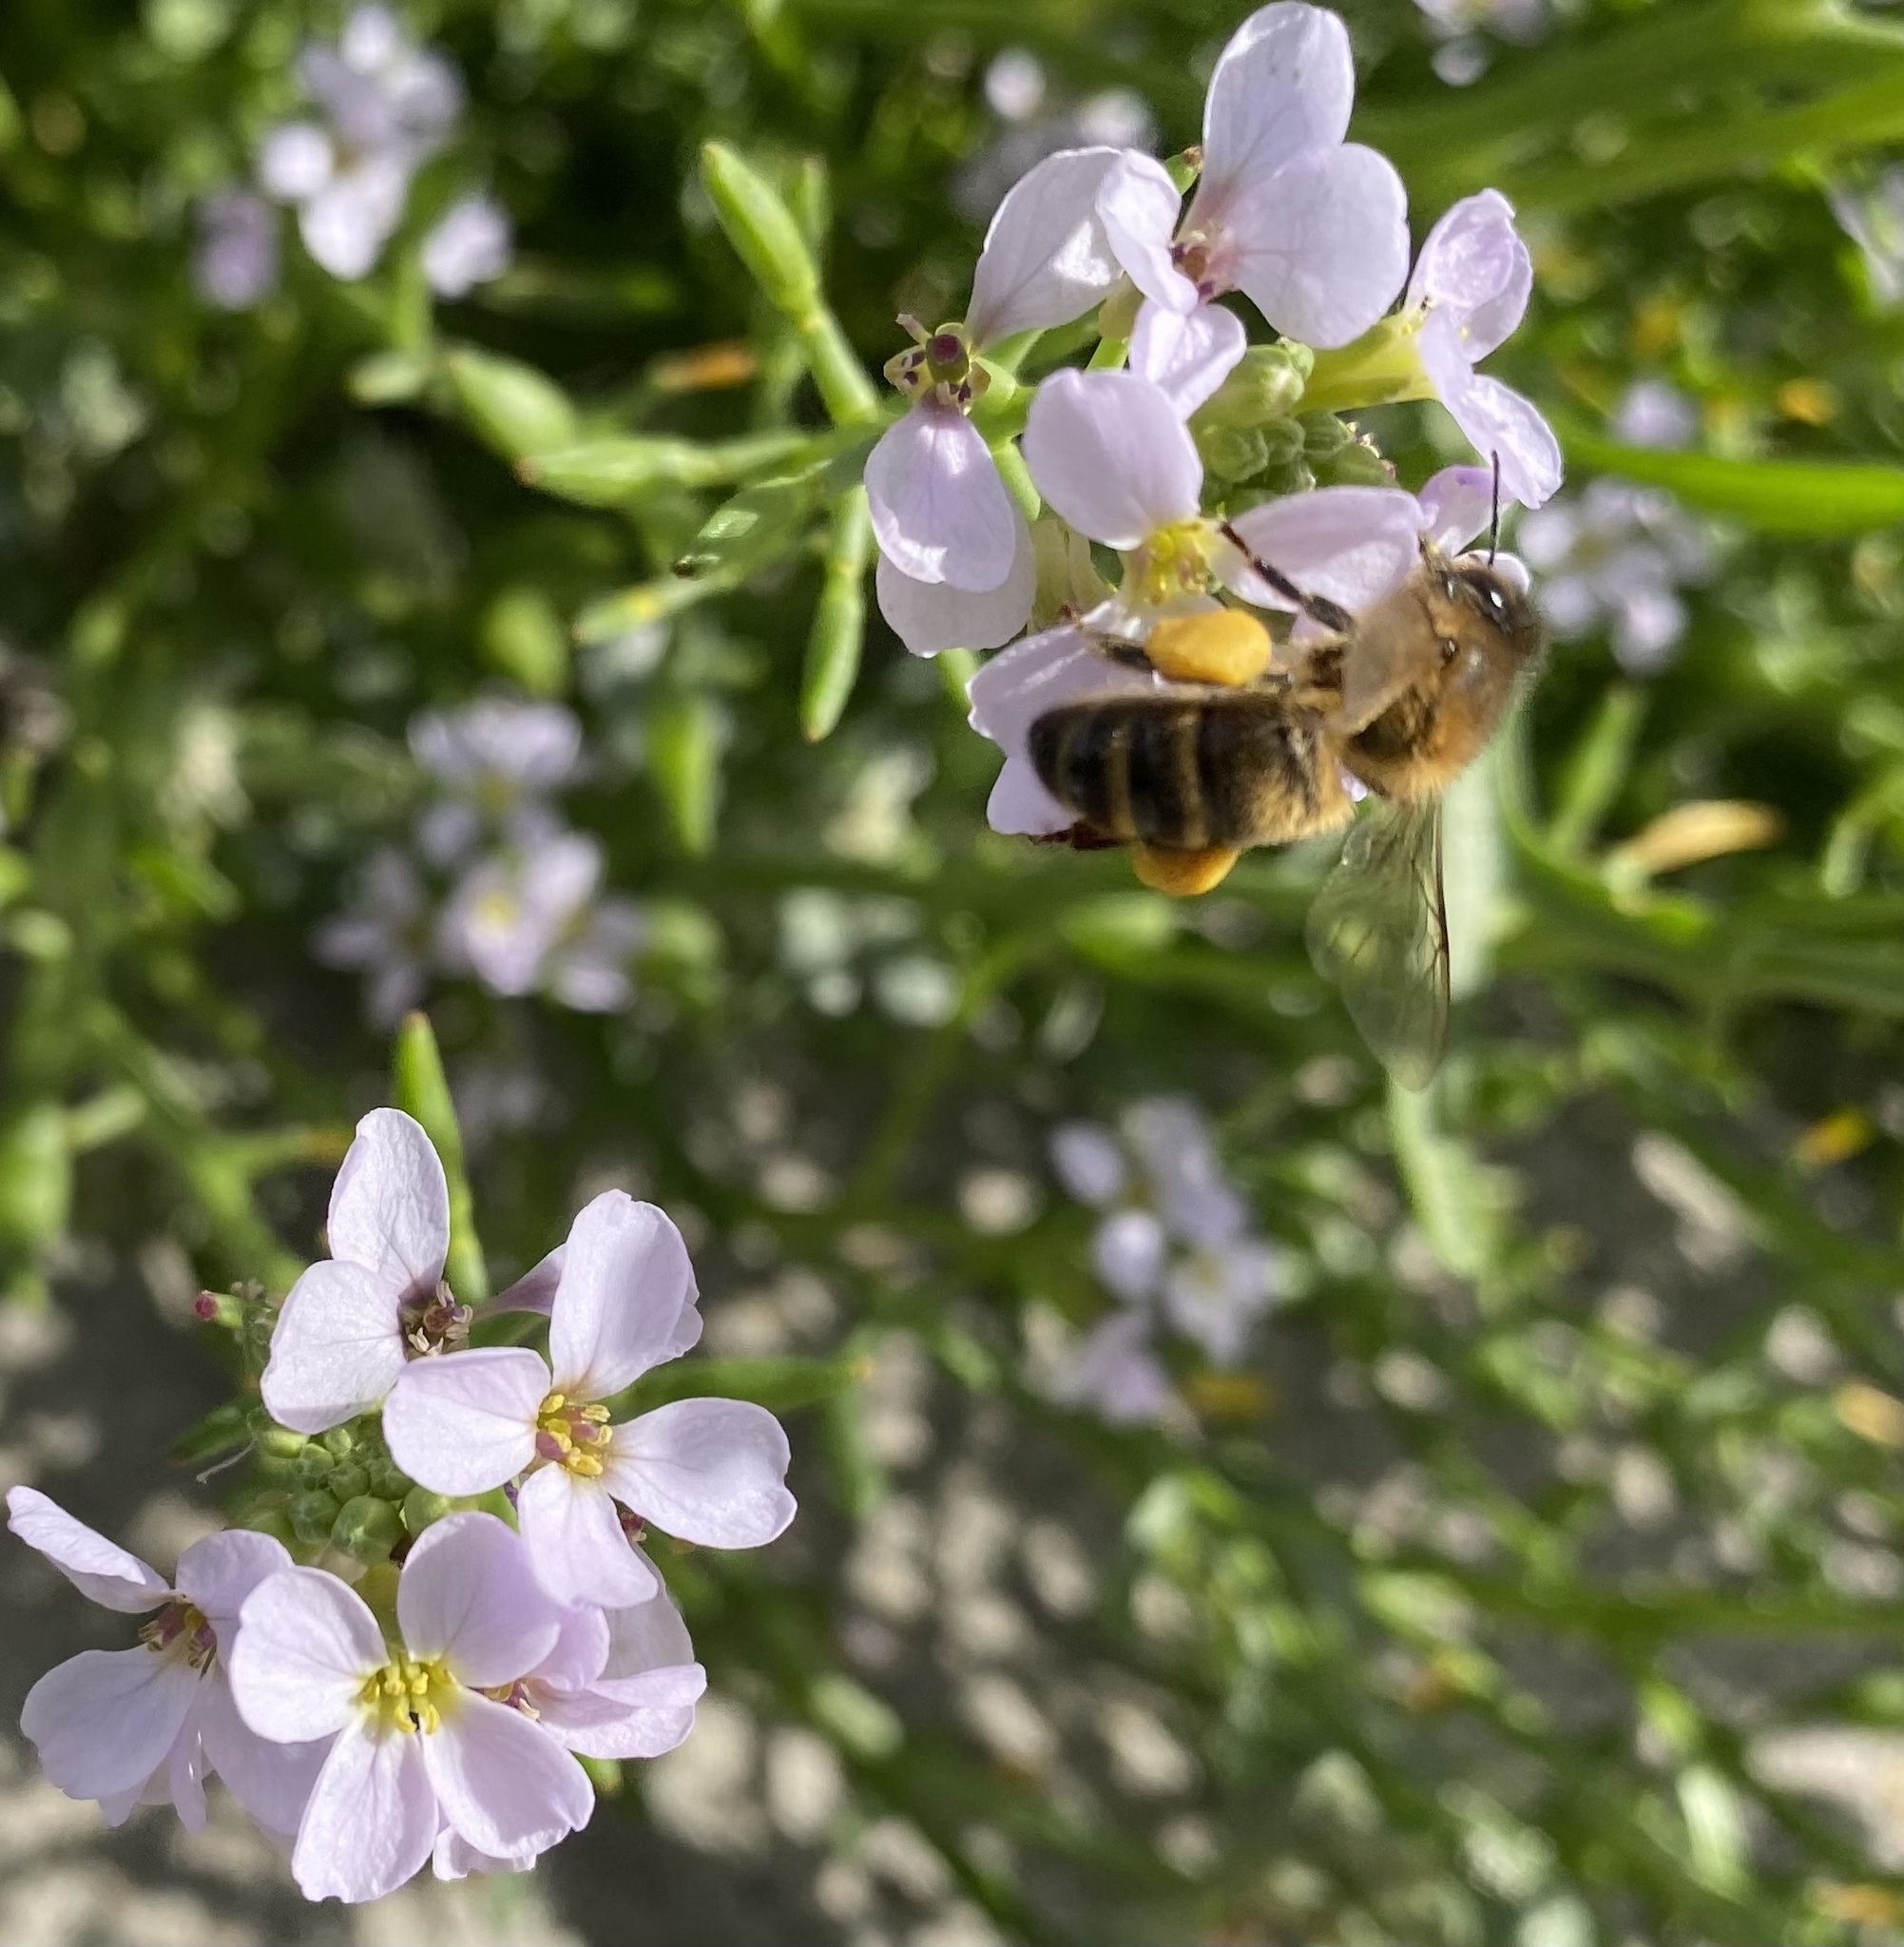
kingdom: Animalia
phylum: Arthropoda
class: Insecta
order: Hymenoptera
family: Apidae
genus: Apis
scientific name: Apis mellifera
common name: Honey bee
